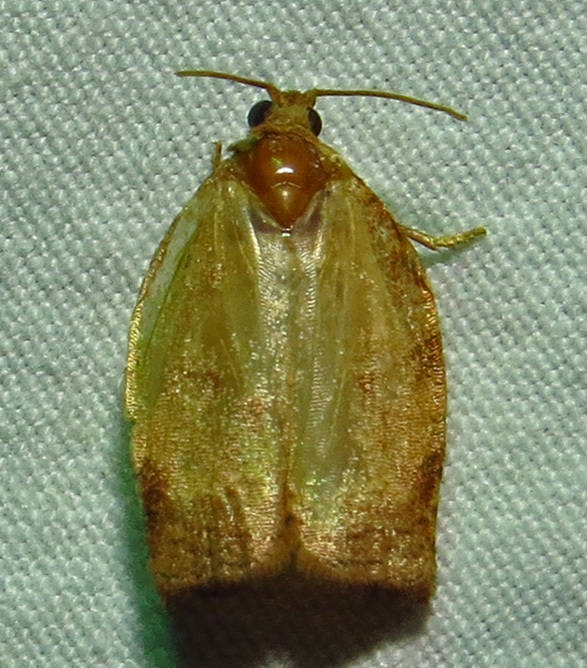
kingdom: Animalia
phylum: Arthropoda
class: Insecta
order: Lepidoptera
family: Tortricidae
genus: Choristoneura
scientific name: Choristoneura rosaceana
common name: Oblique-banded leafroller moth
